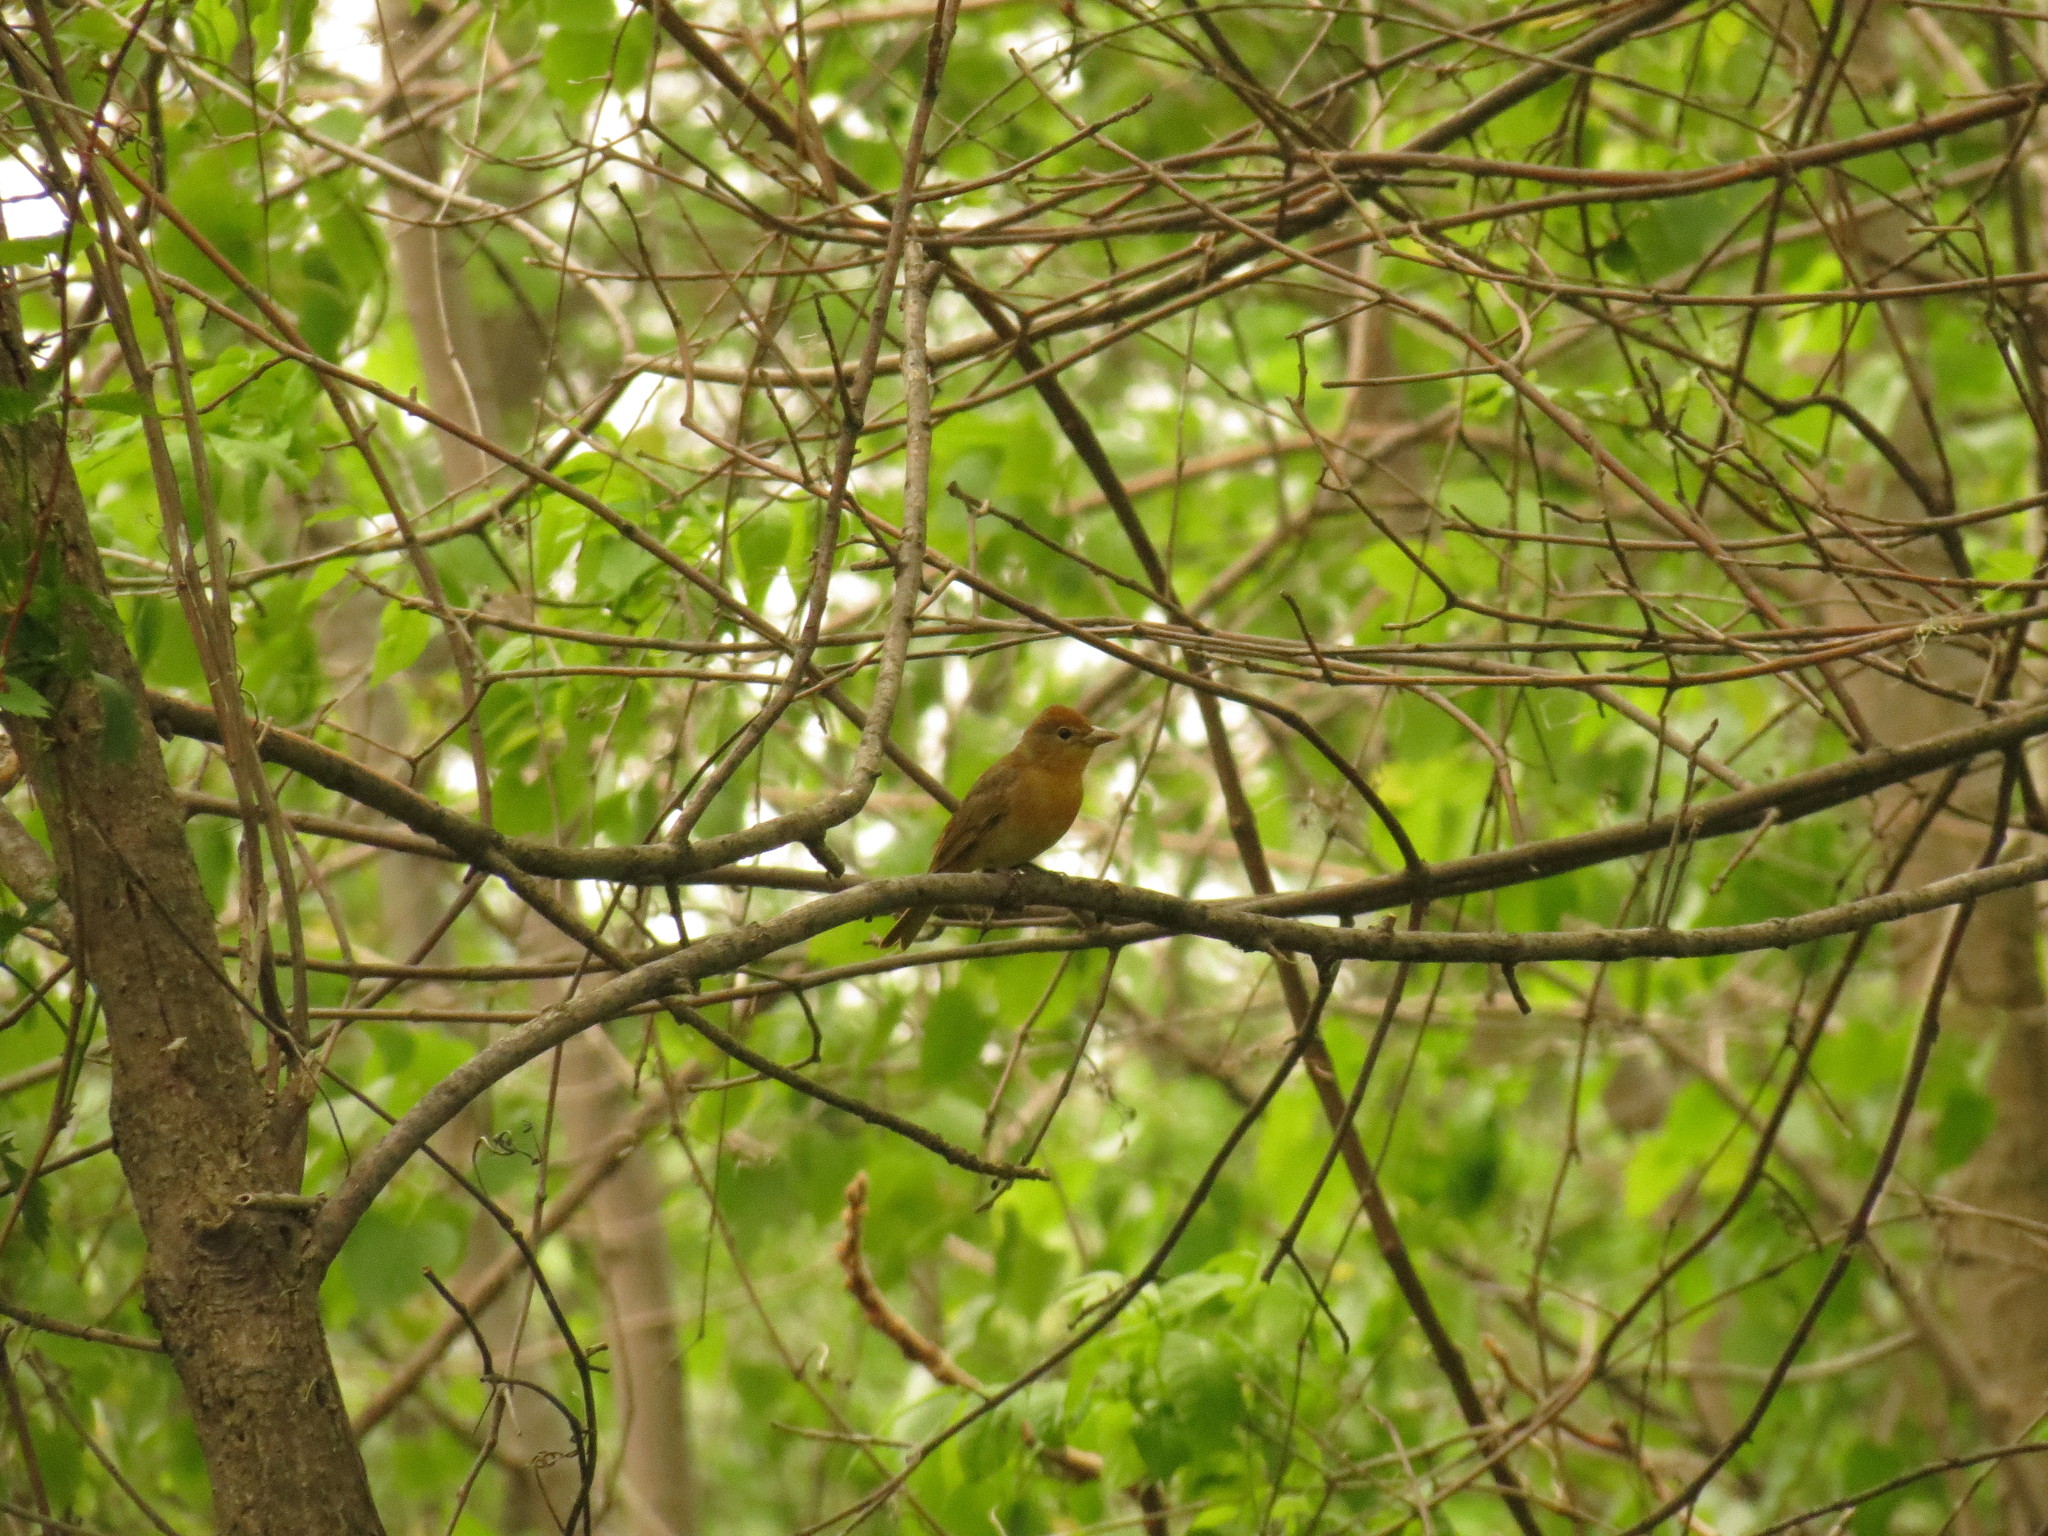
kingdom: Animalia
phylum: Chordata
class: Aves
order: Passeriformes
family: Cardinalidae
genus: Piranga
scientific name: Piranga rubra
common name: Summer tanager
